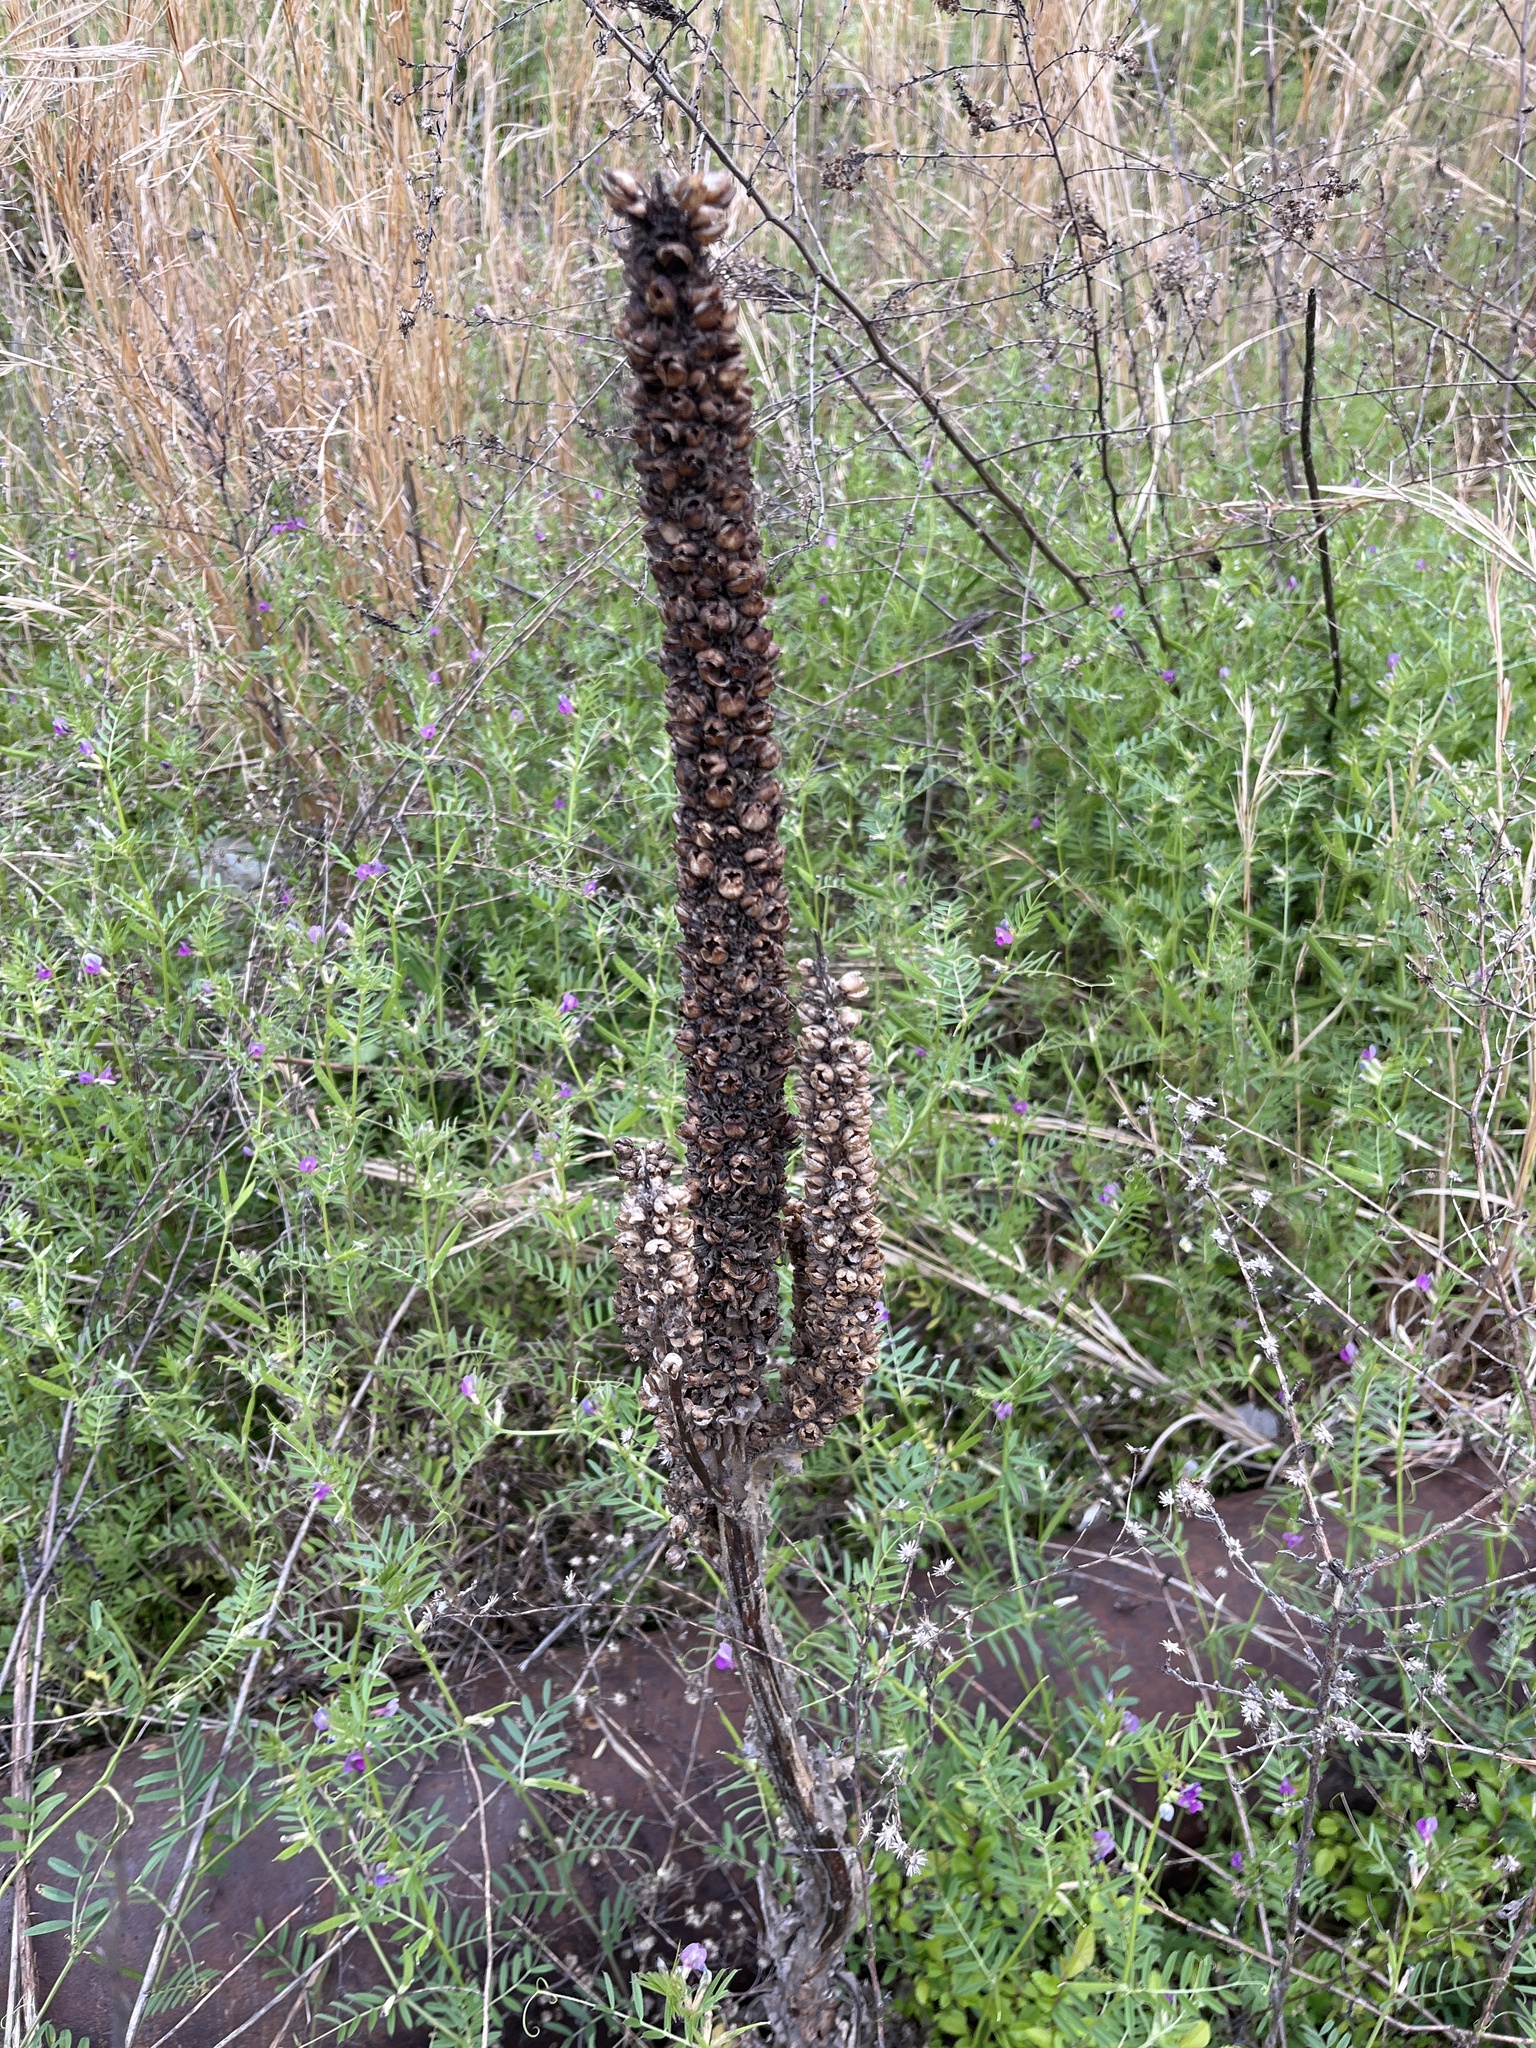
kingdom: Plantae
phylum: Tracheophyta
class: Magnoliopsida
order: Lamiales
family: Scrophulariaceae
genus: Verbascum
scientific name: Verbascum thapsus
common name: Common mullein
